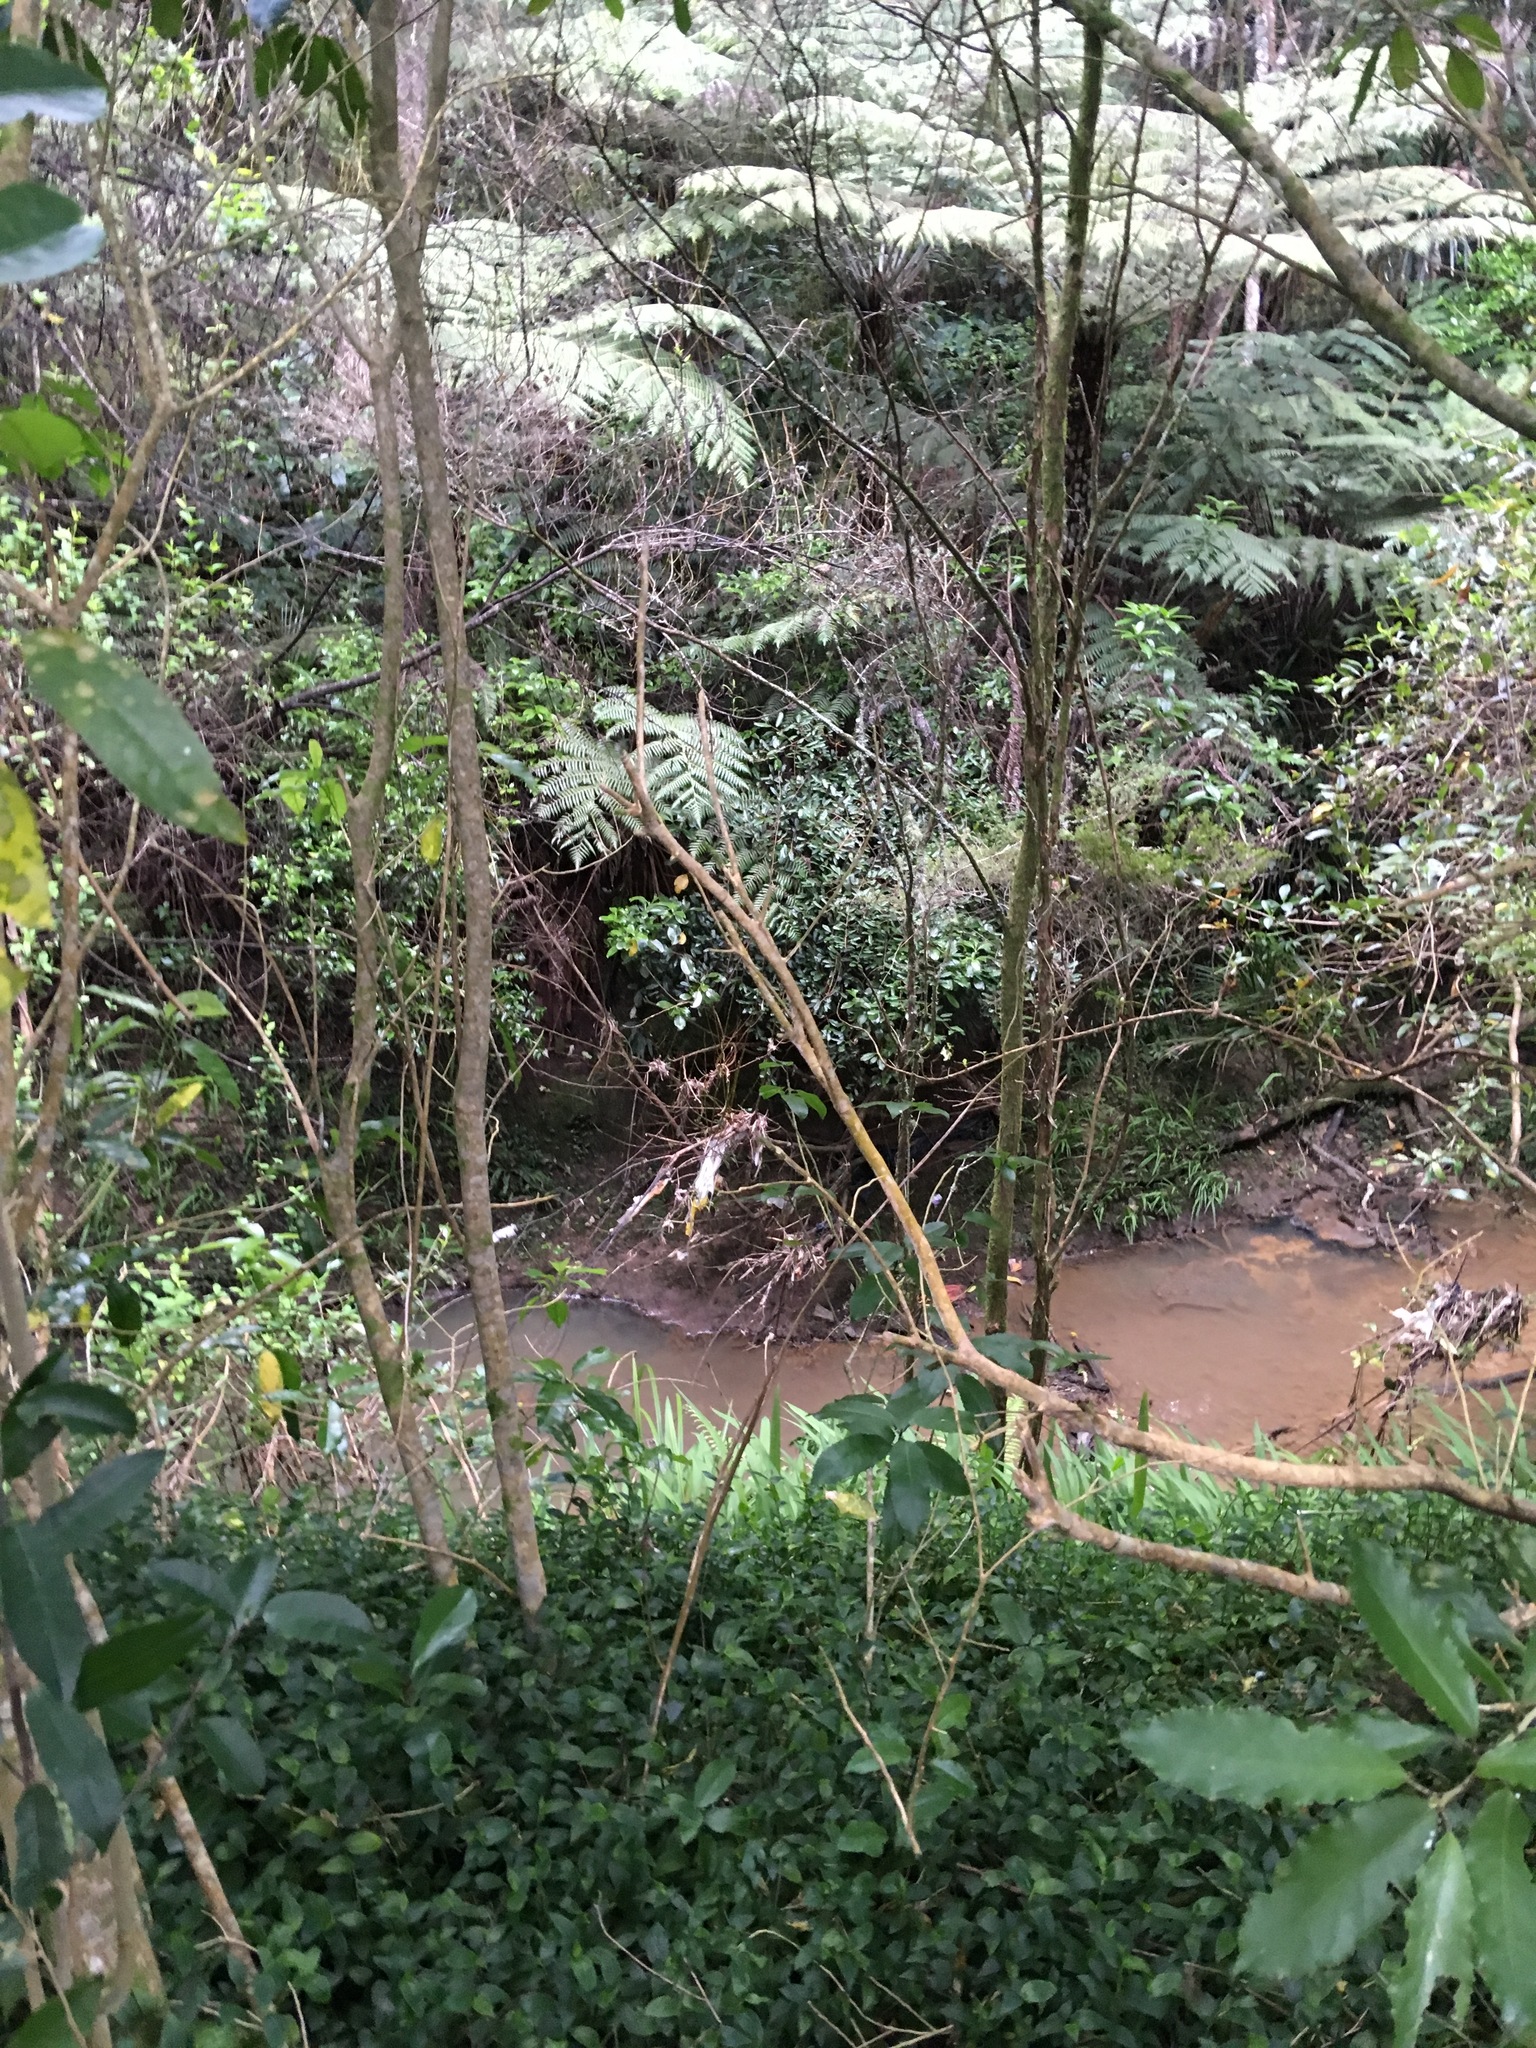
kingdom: Plantae
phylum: Tracheophyta
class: Liliopsida
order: Commelinales
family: Commelinaceae
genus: Tradescantia
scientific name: Tradescantia fluminensis
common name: Wandering-jew
